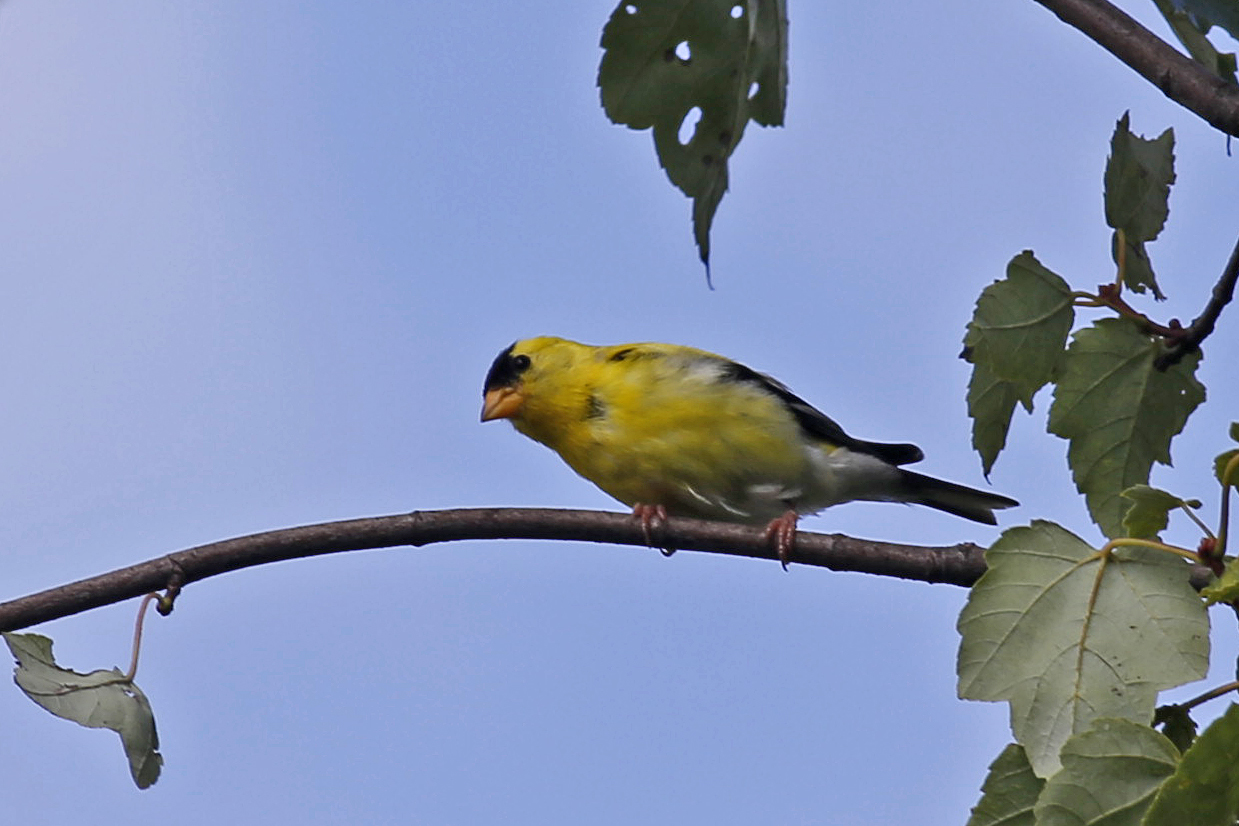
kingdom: Animalia
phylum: Chordata
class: Aves
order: Passeriformes
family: Fringillidae
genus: Spinus
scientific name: Spinus tristis
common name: American goldfinch
